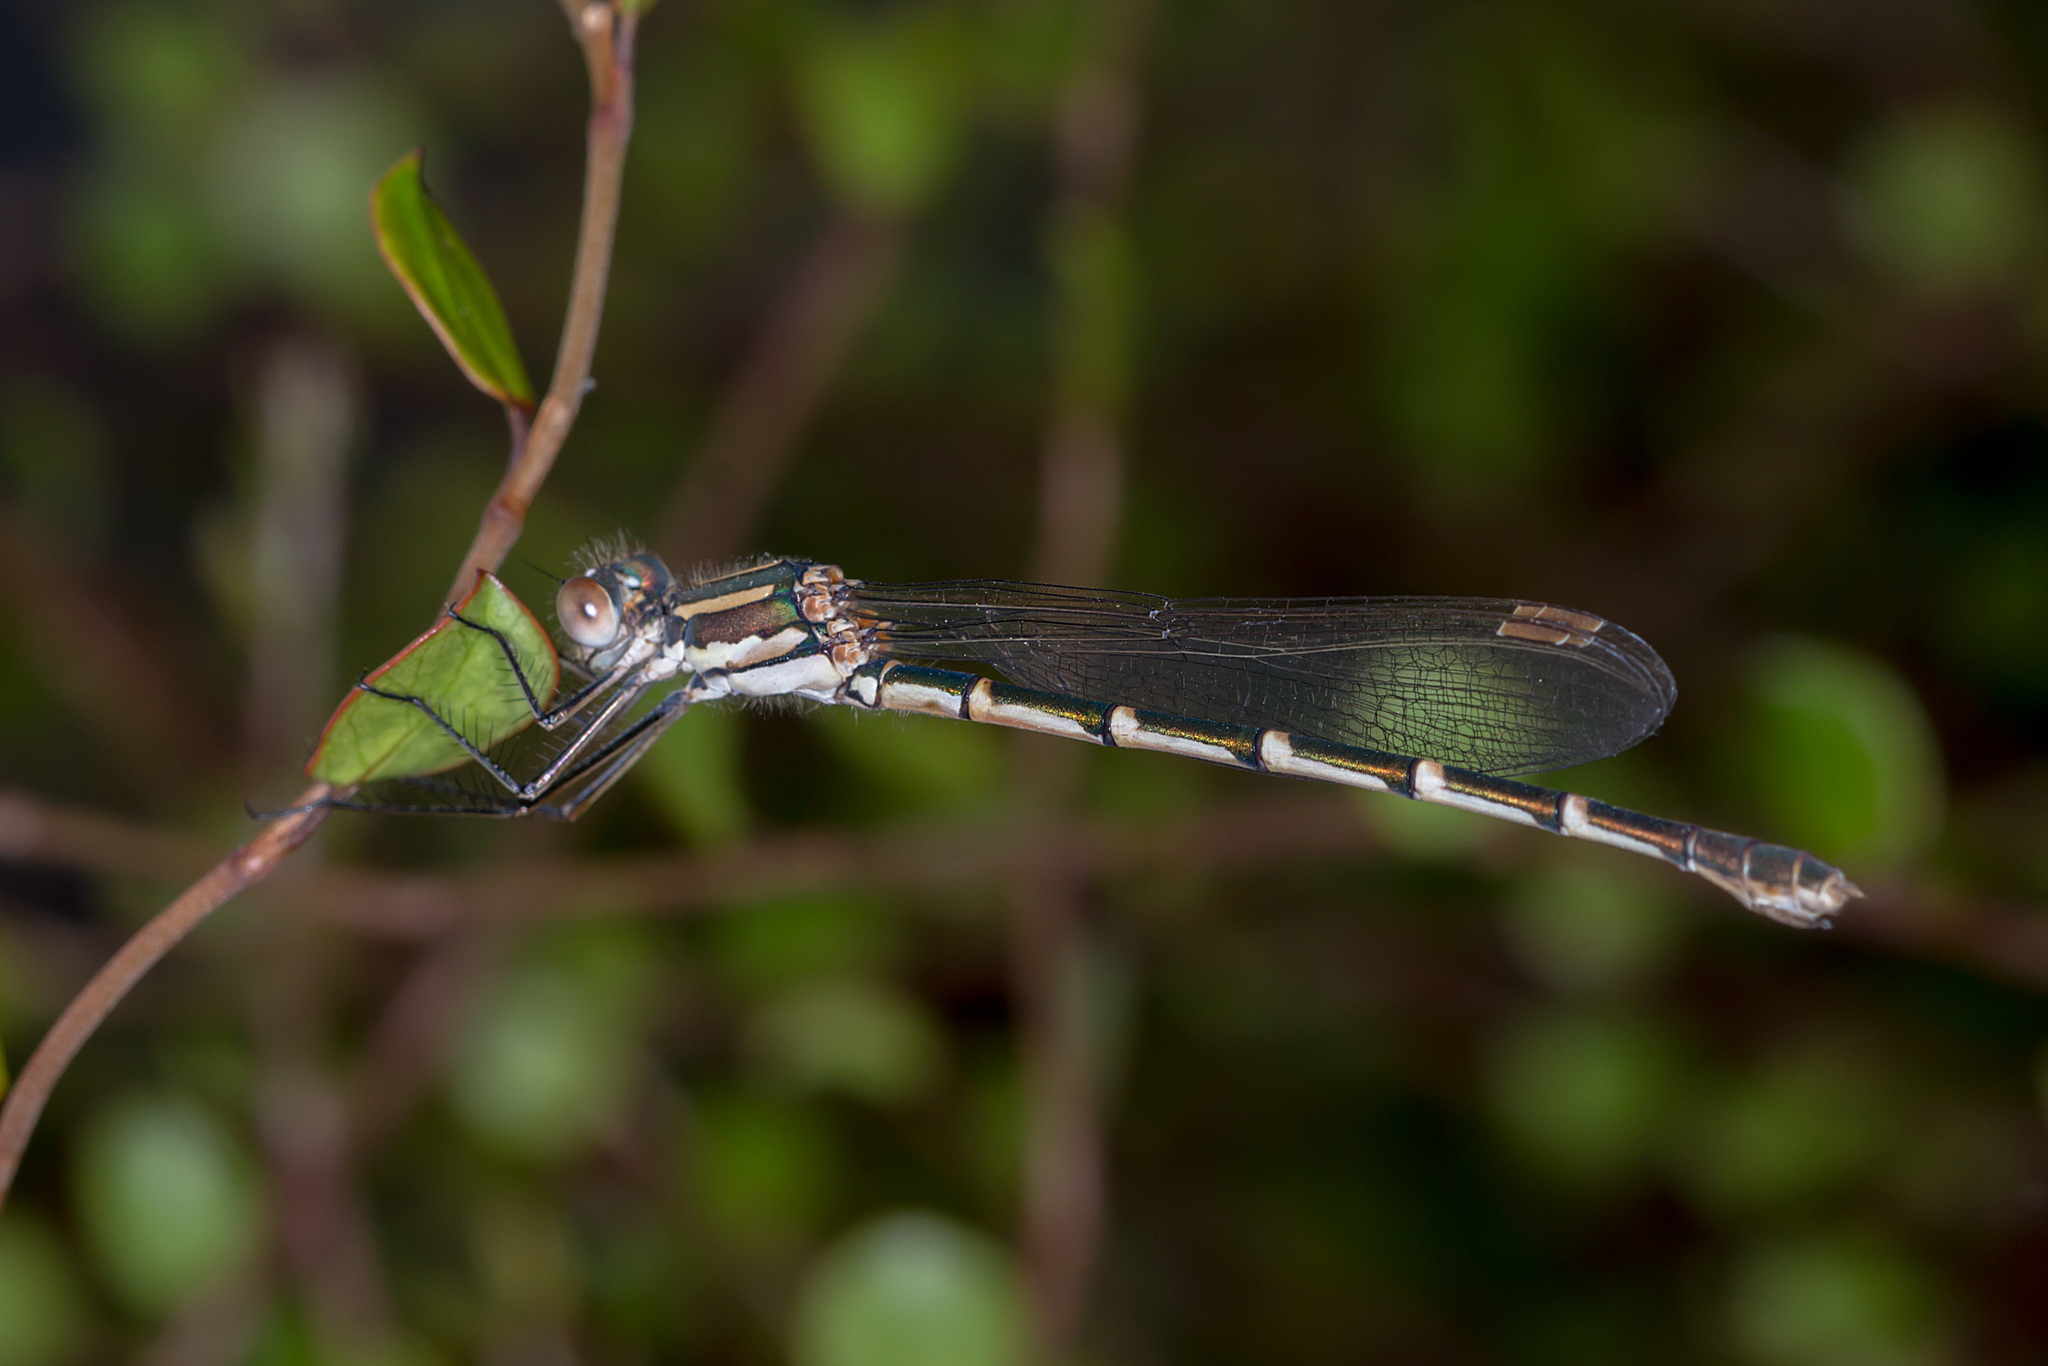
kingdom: Animalia
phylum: Arthropoda
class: Insecta
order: Odonata
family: Lestidae
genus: Austrolestes
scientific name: Austrolestes annulosus
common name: Blue ringtail
